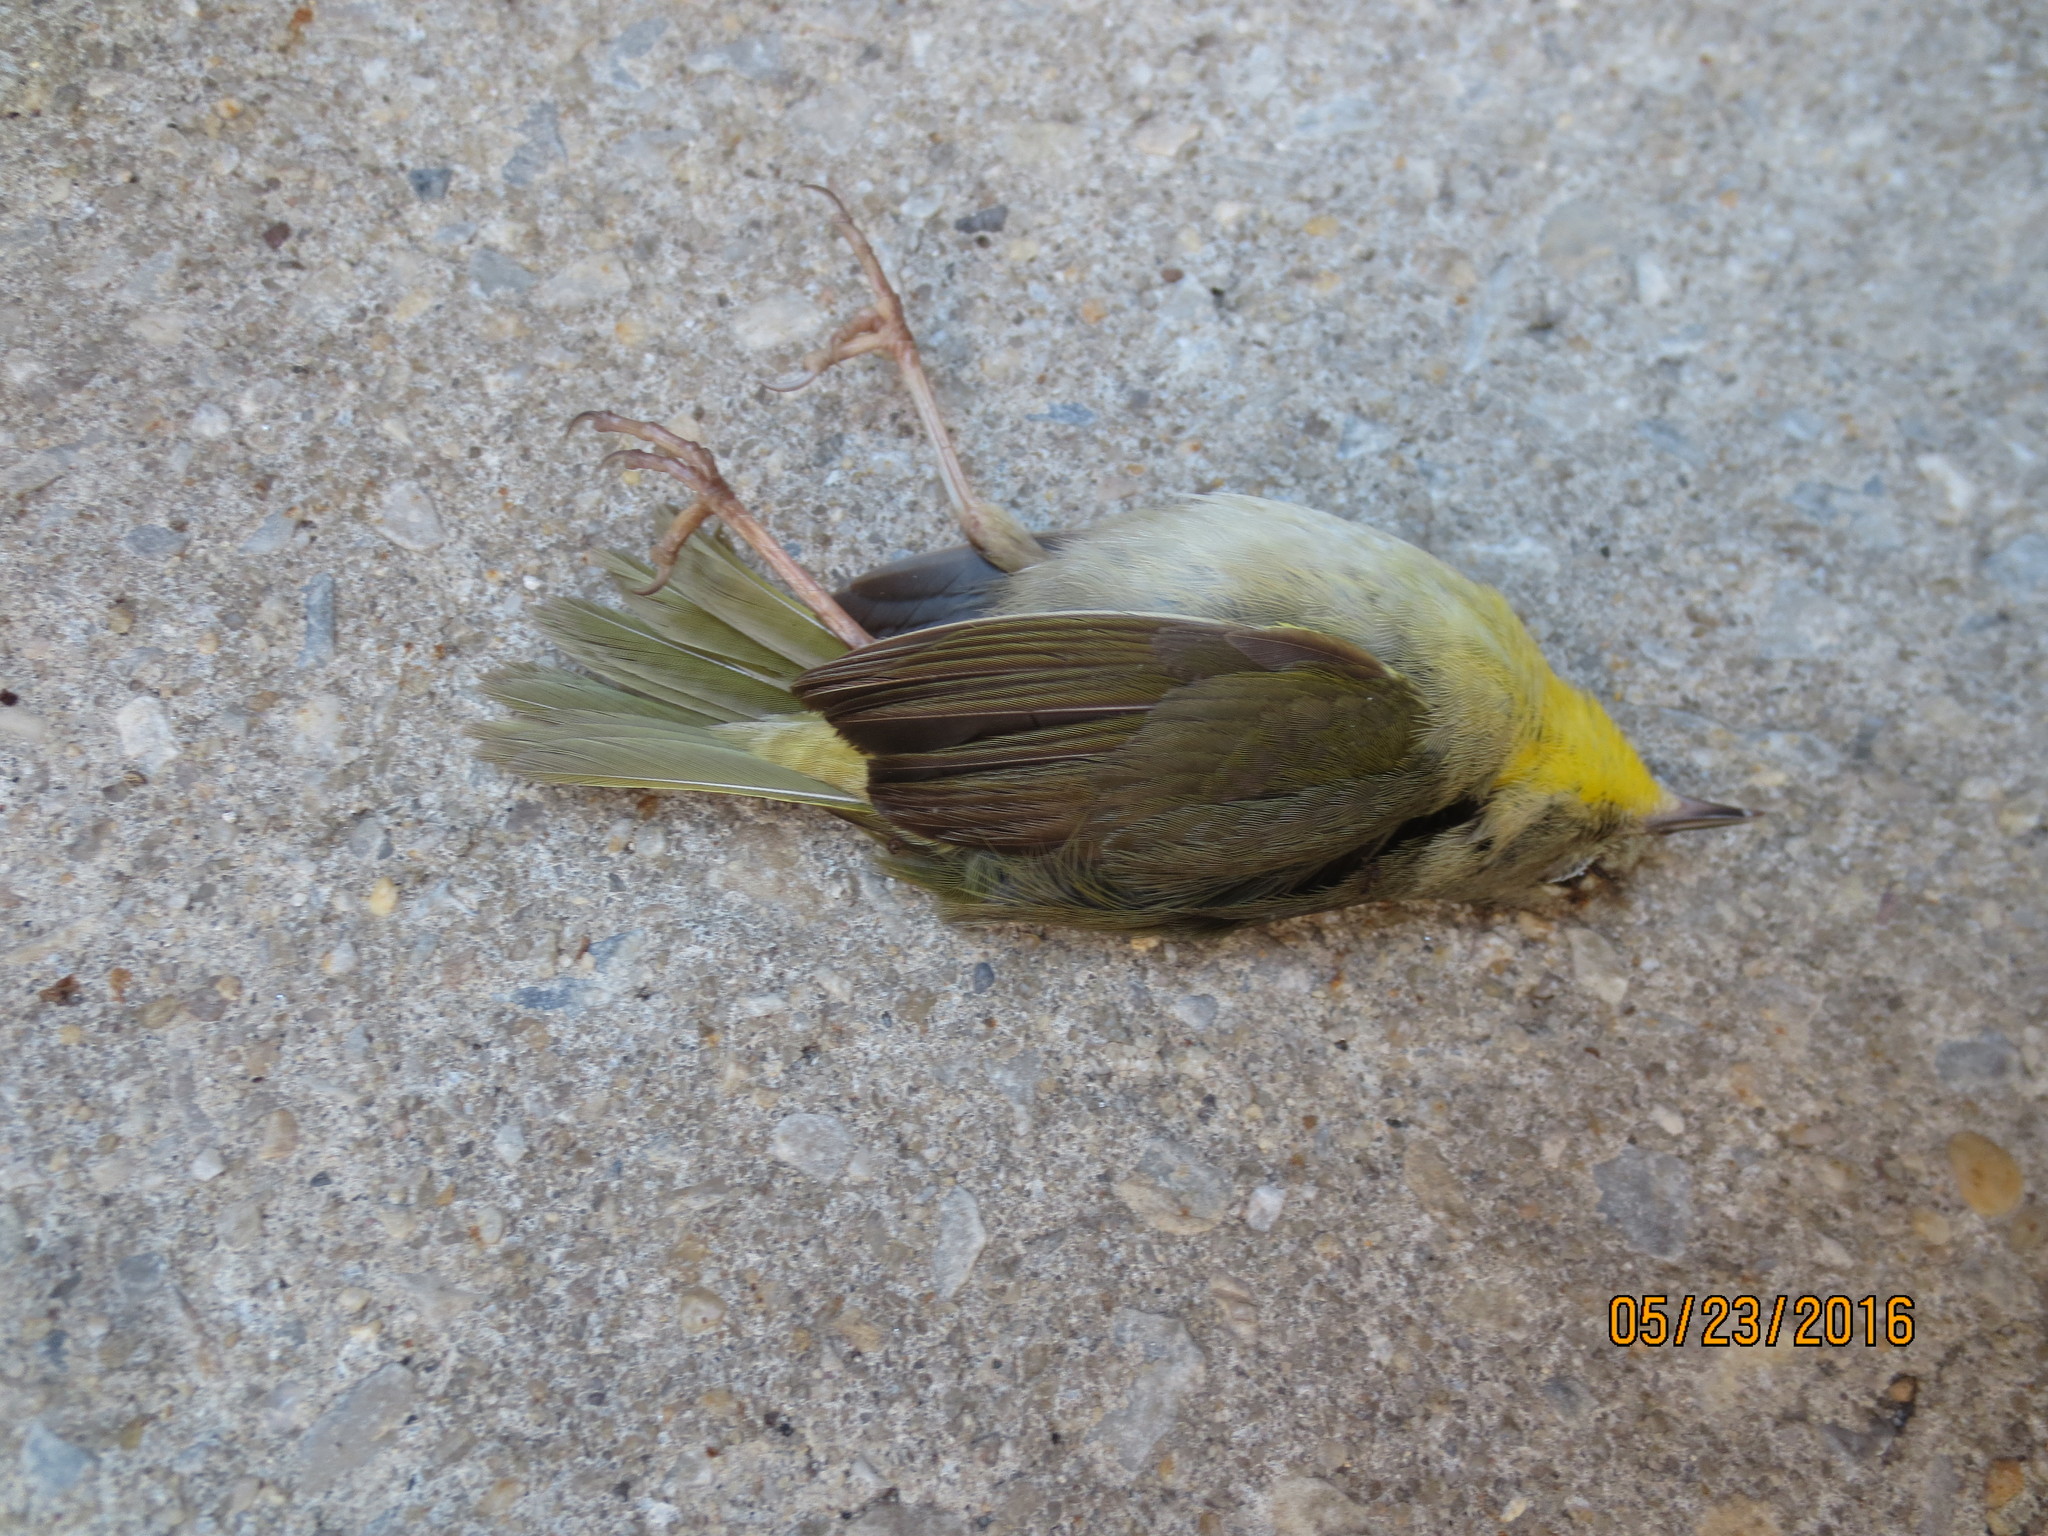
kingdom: Animalia
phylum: Chordata
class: Aves
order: Passeriformes
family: Parulidae
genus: Geothlypis
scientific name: Geothlypis trichas
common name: Common yellowthroat
